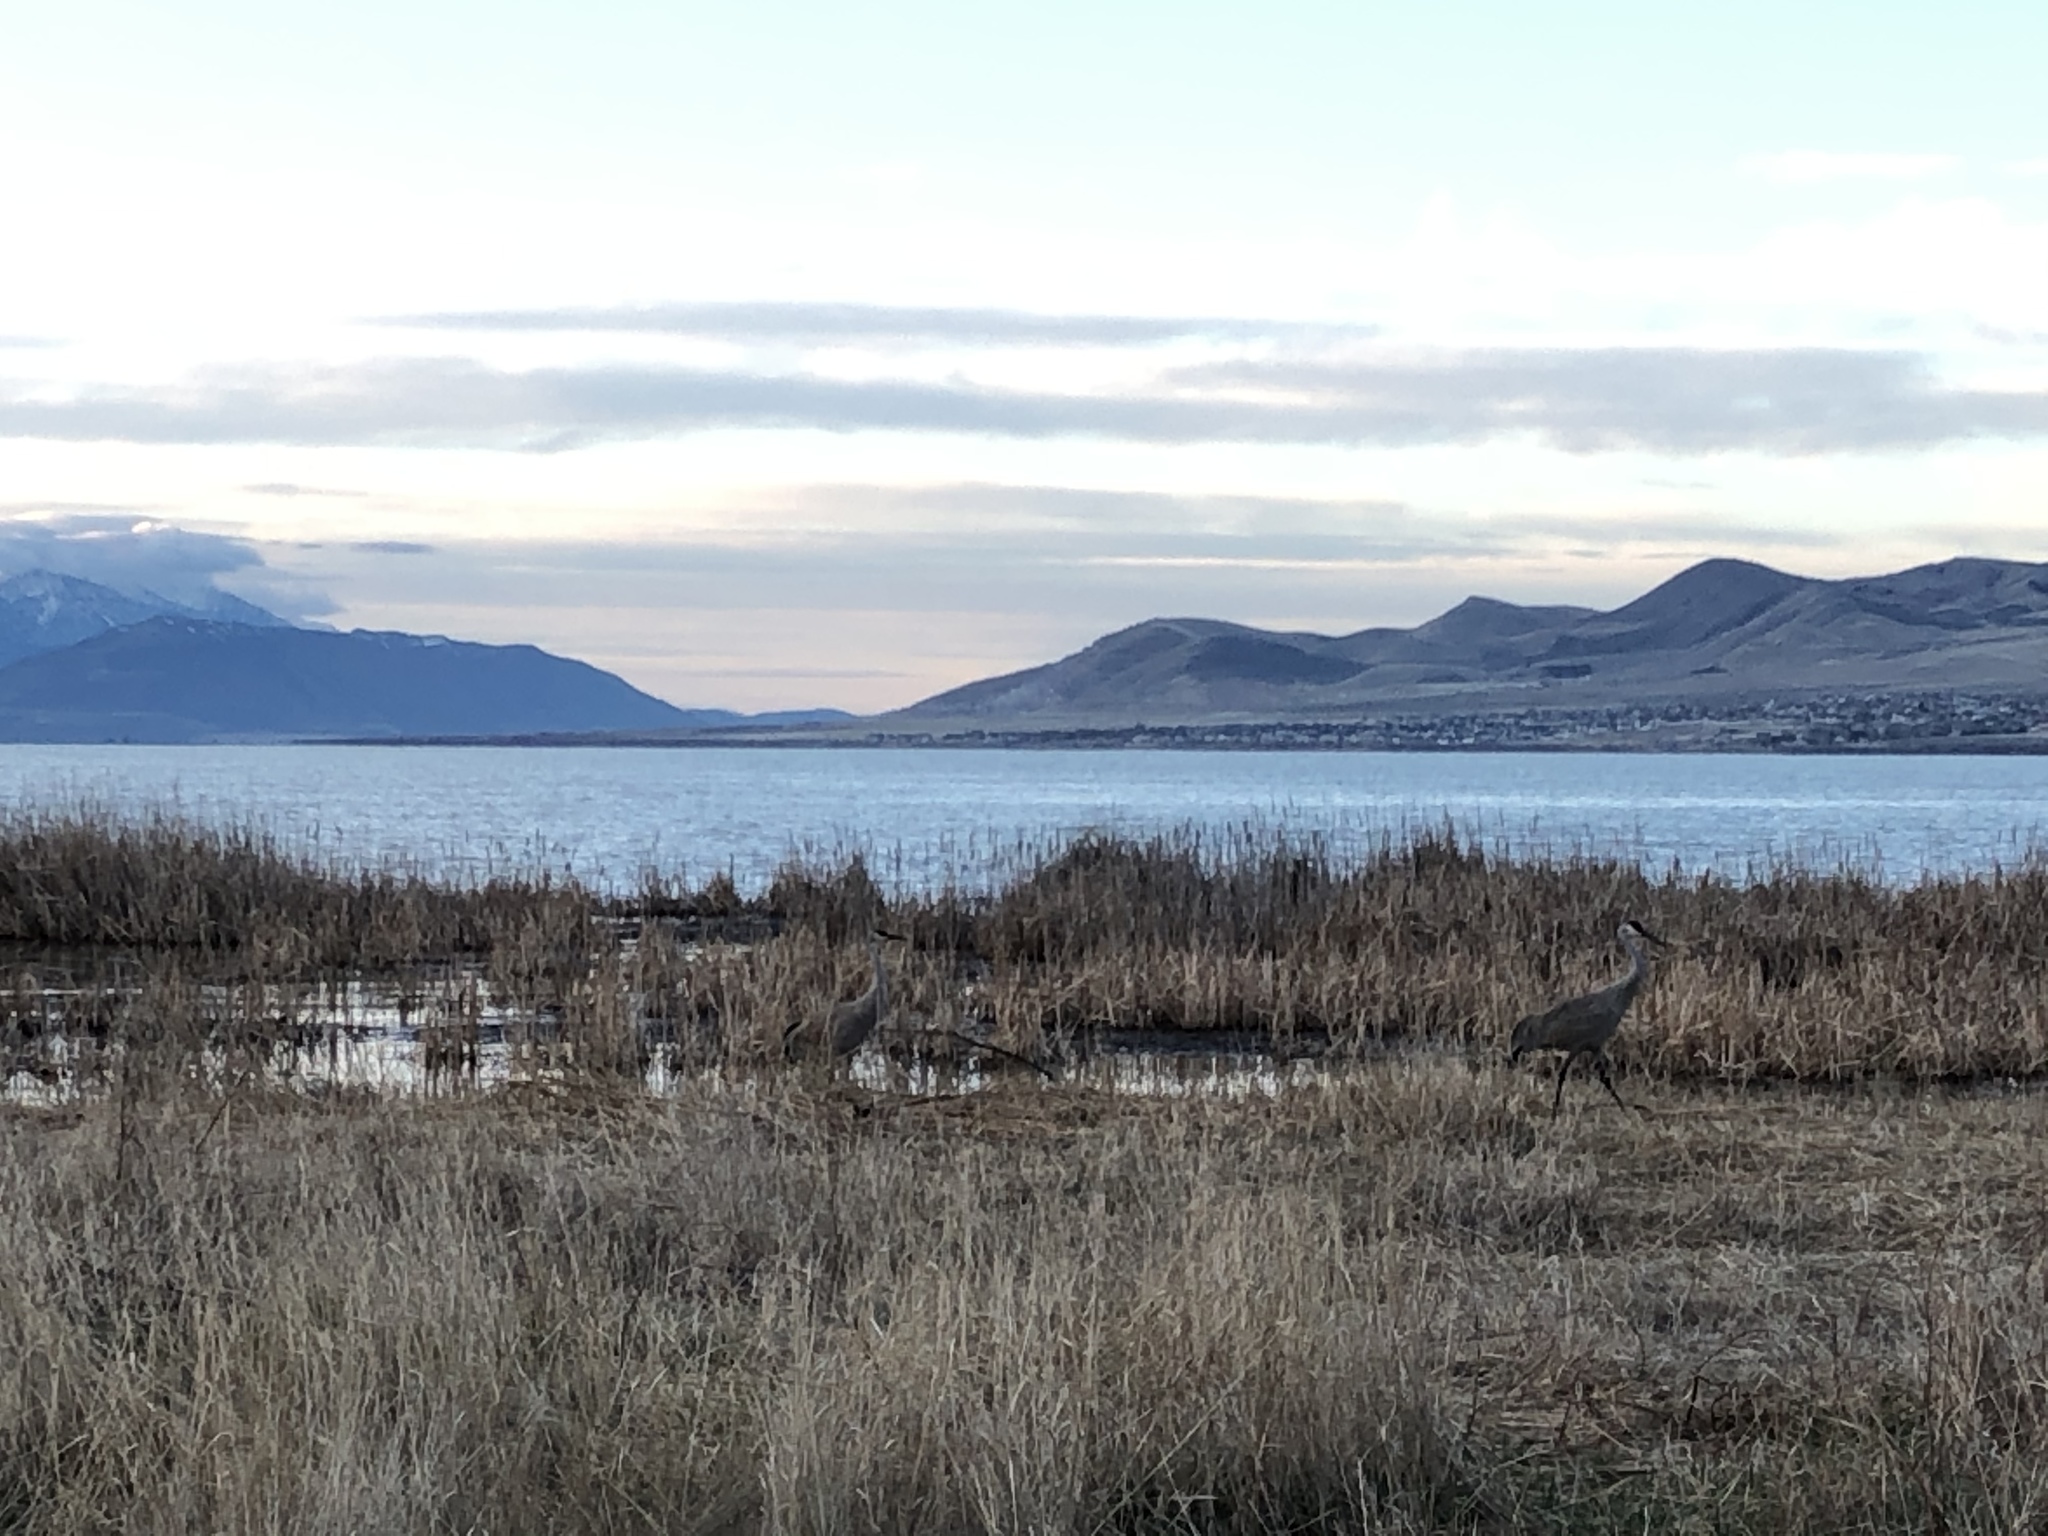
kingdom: Animalia
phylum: Chordata
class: Aves
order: Gruiformes
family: Gruidae
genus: Grus
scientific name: Grus canadensis
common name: Sandhill crane
